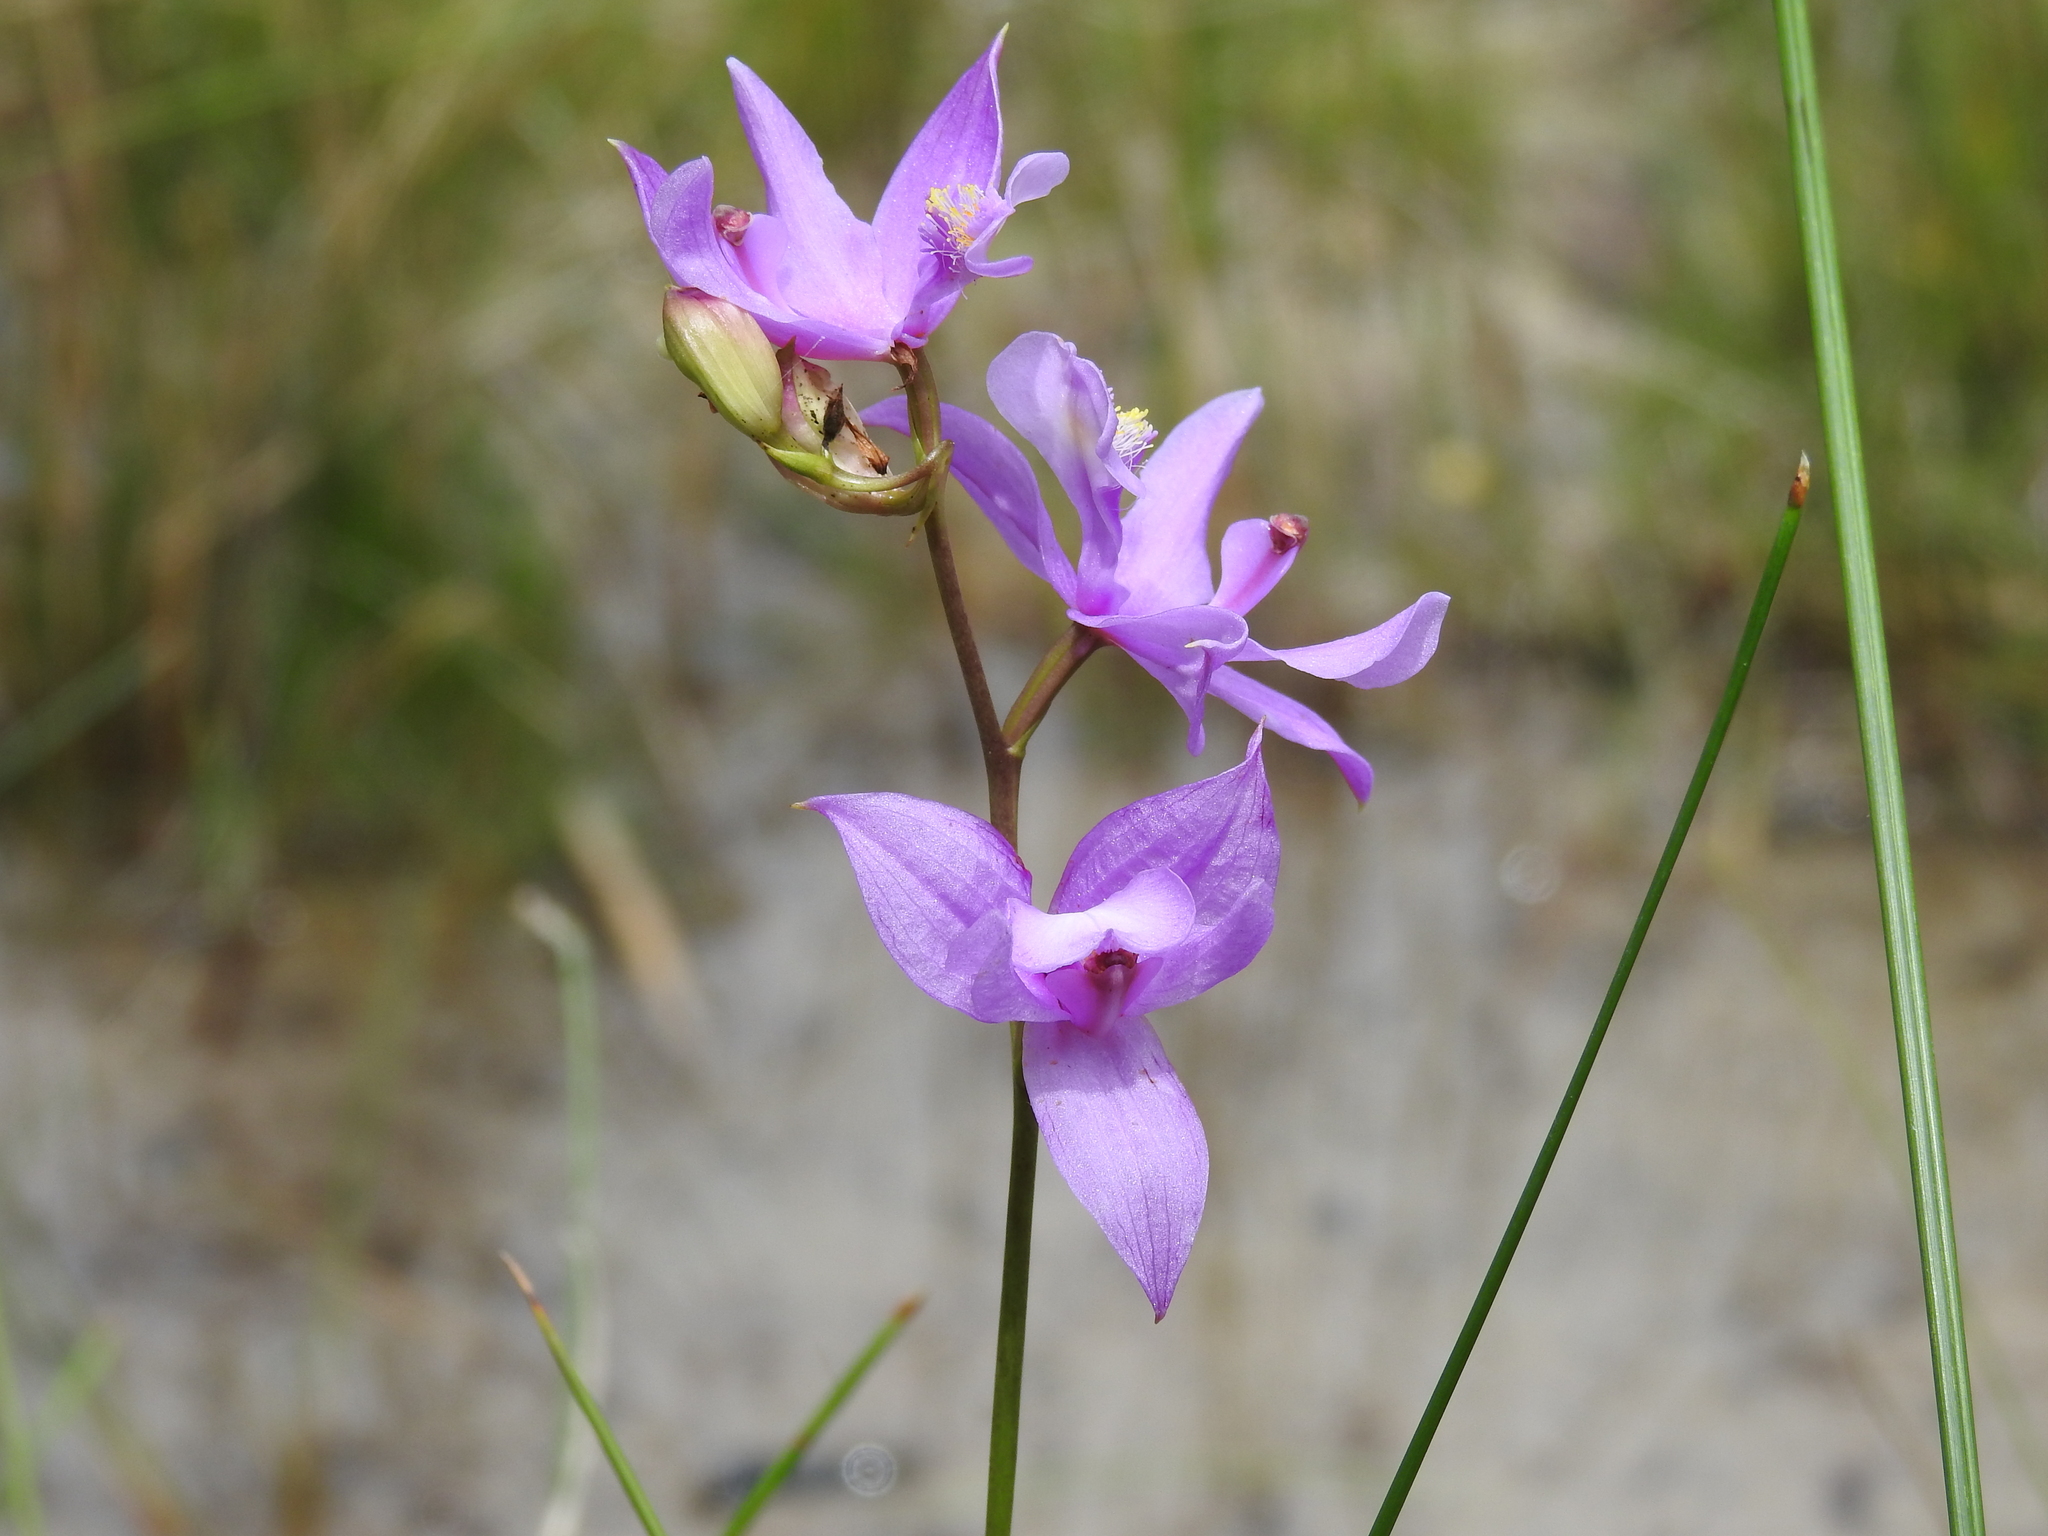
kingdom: Plantae
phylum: Tracheophyta
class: Liliopsida
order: Asparagales
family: Orchidaceae
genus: Calopogon
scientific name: Calopogon tuberosus
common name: Grass-pink
